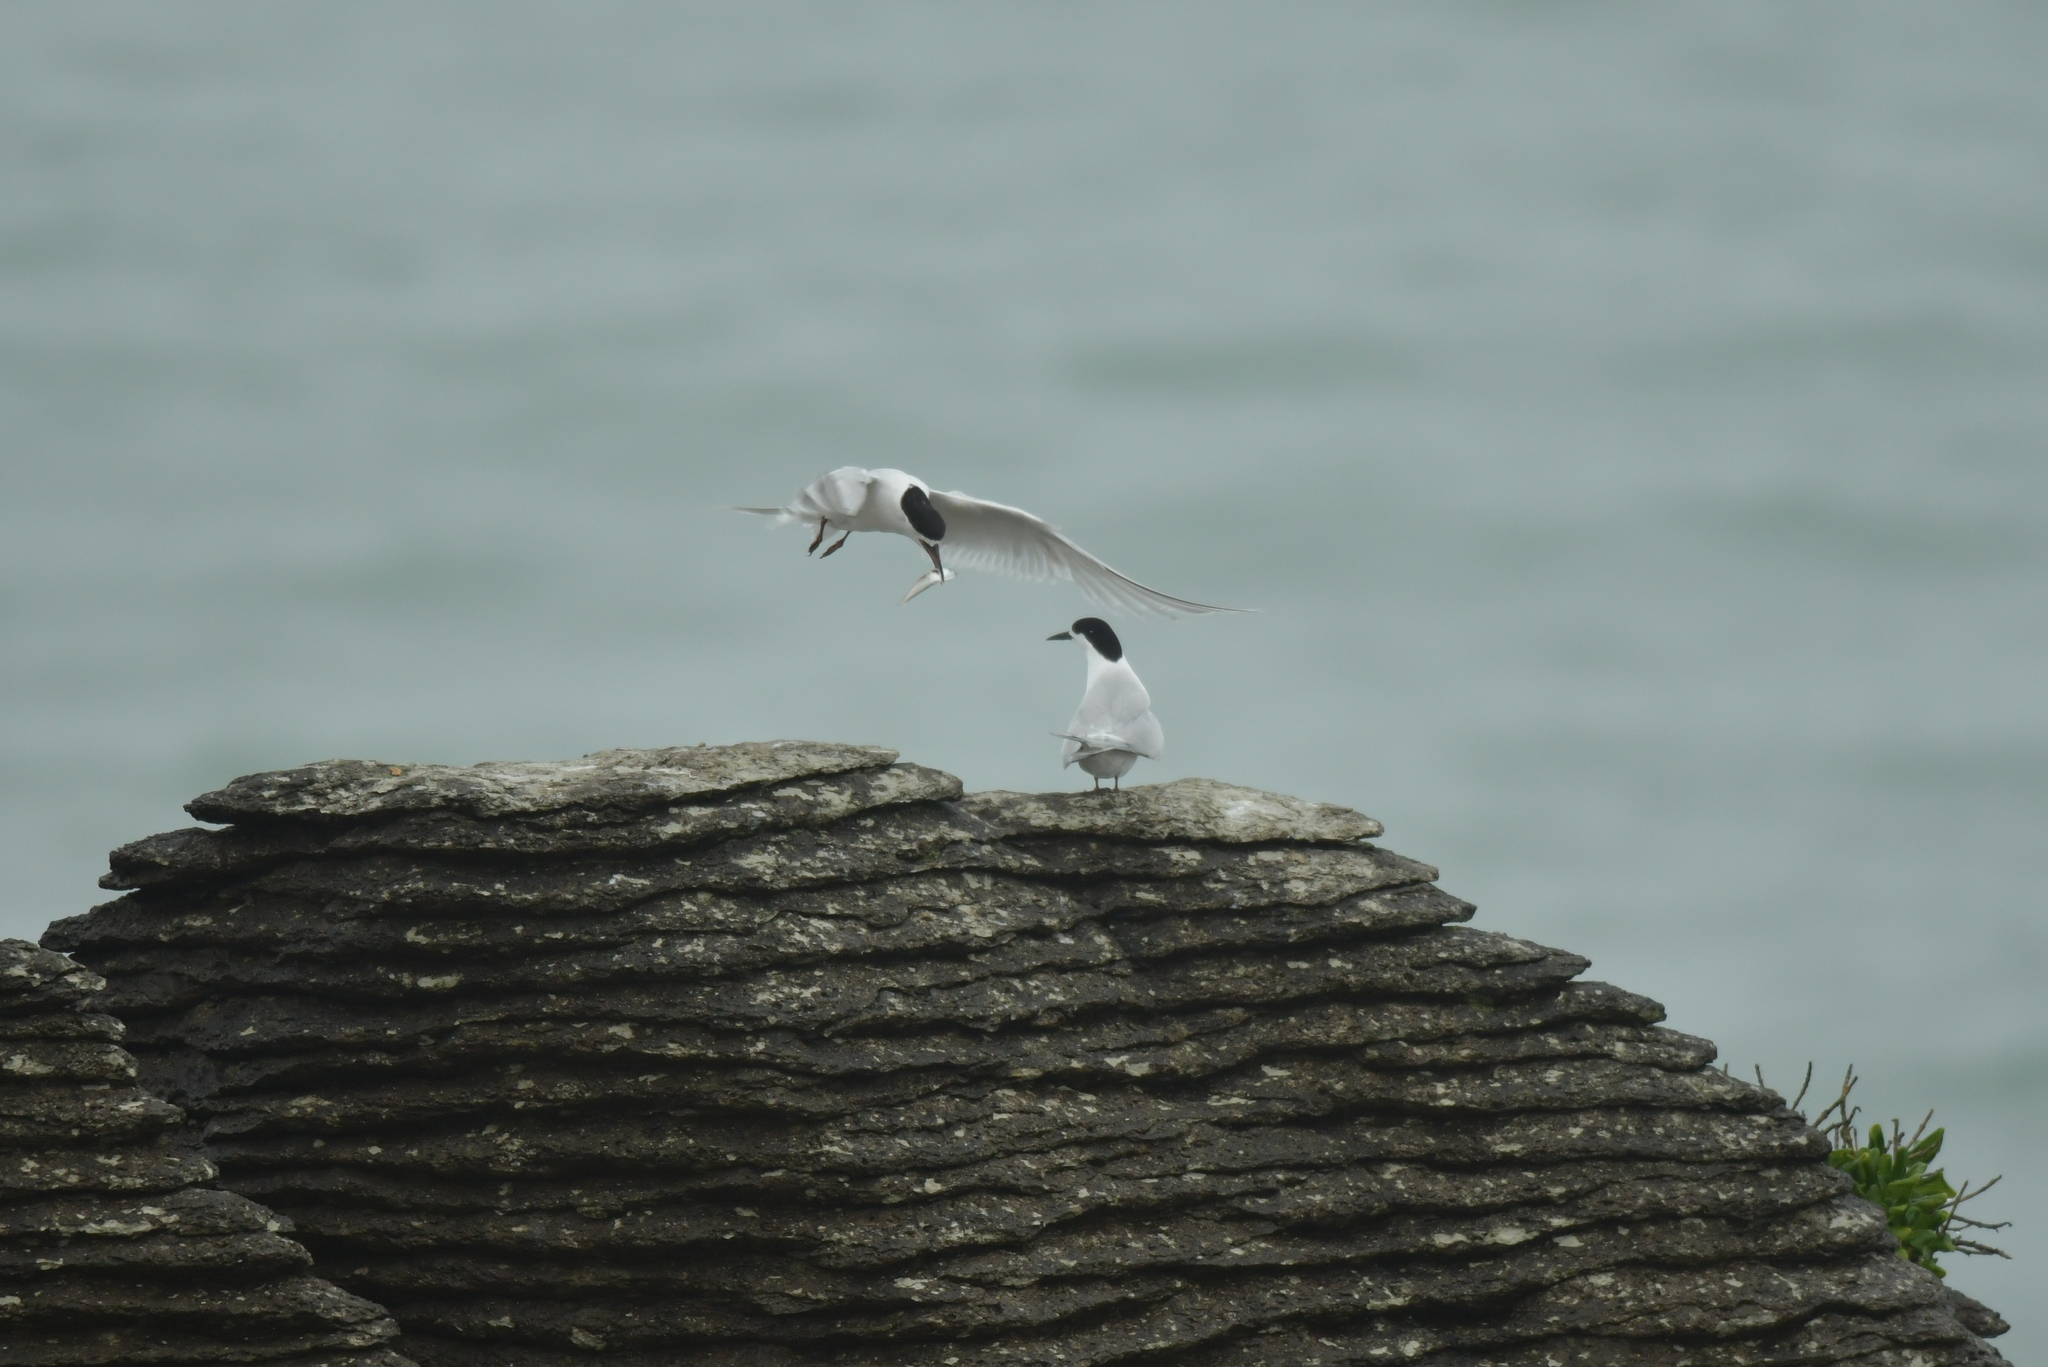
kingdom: Animalia
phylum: Chordata
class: Aves
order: Charadriiformes
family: Laridae
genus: Sterna
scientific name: Sterna striata
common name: White-fronted tern
